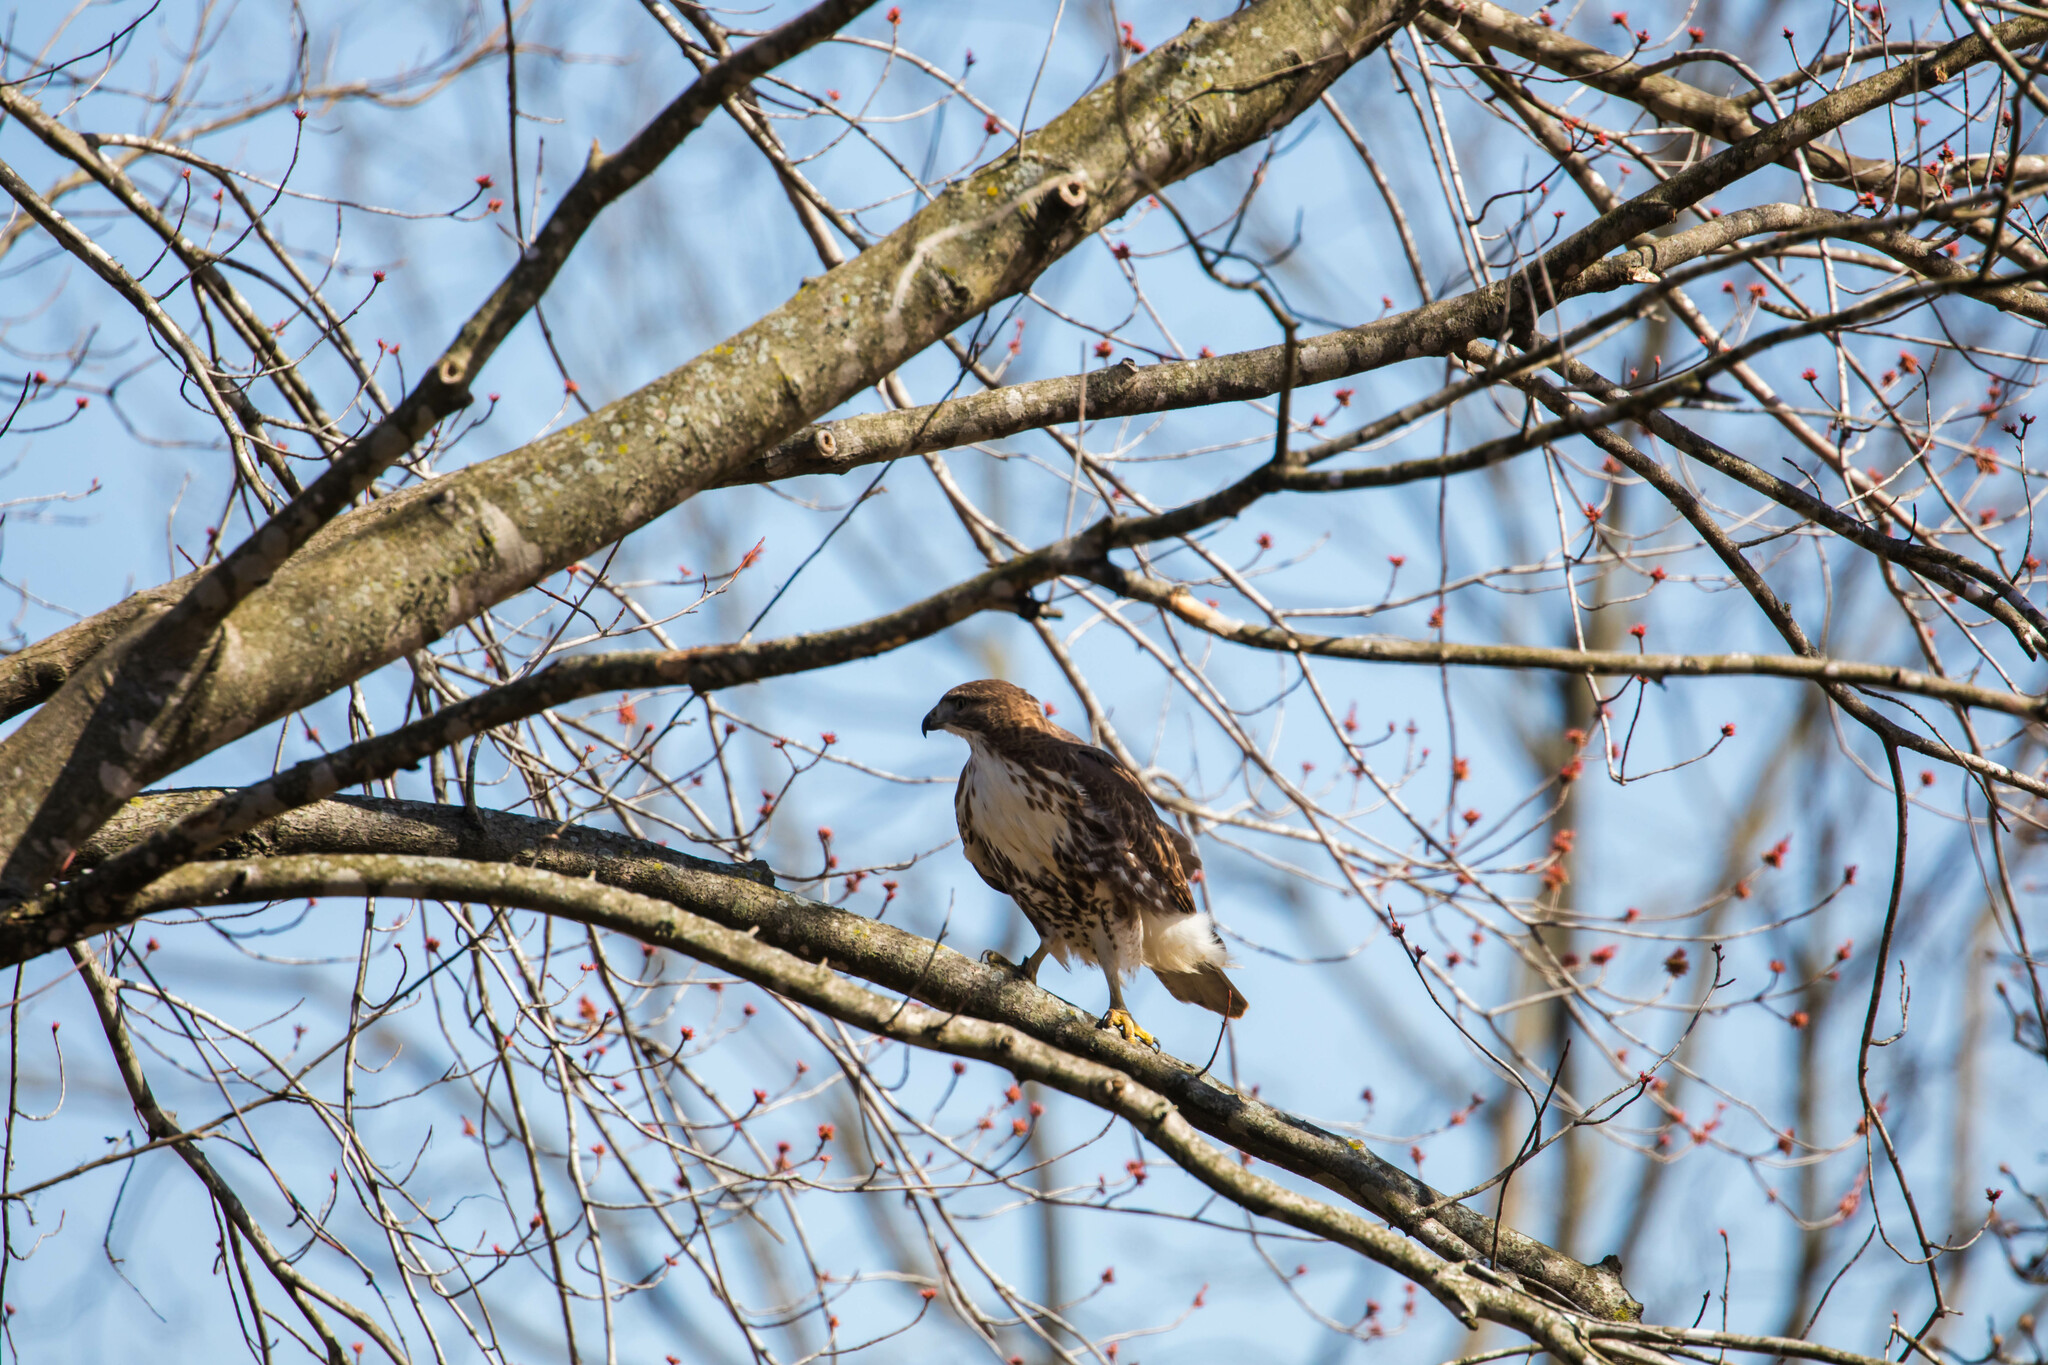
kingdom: Animalia
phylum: Chordata
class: Aves
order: Accipitriformes
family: Accipitridae
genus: Buteo
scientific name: Buteo jamaicensis
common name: Red-tailed hawk
